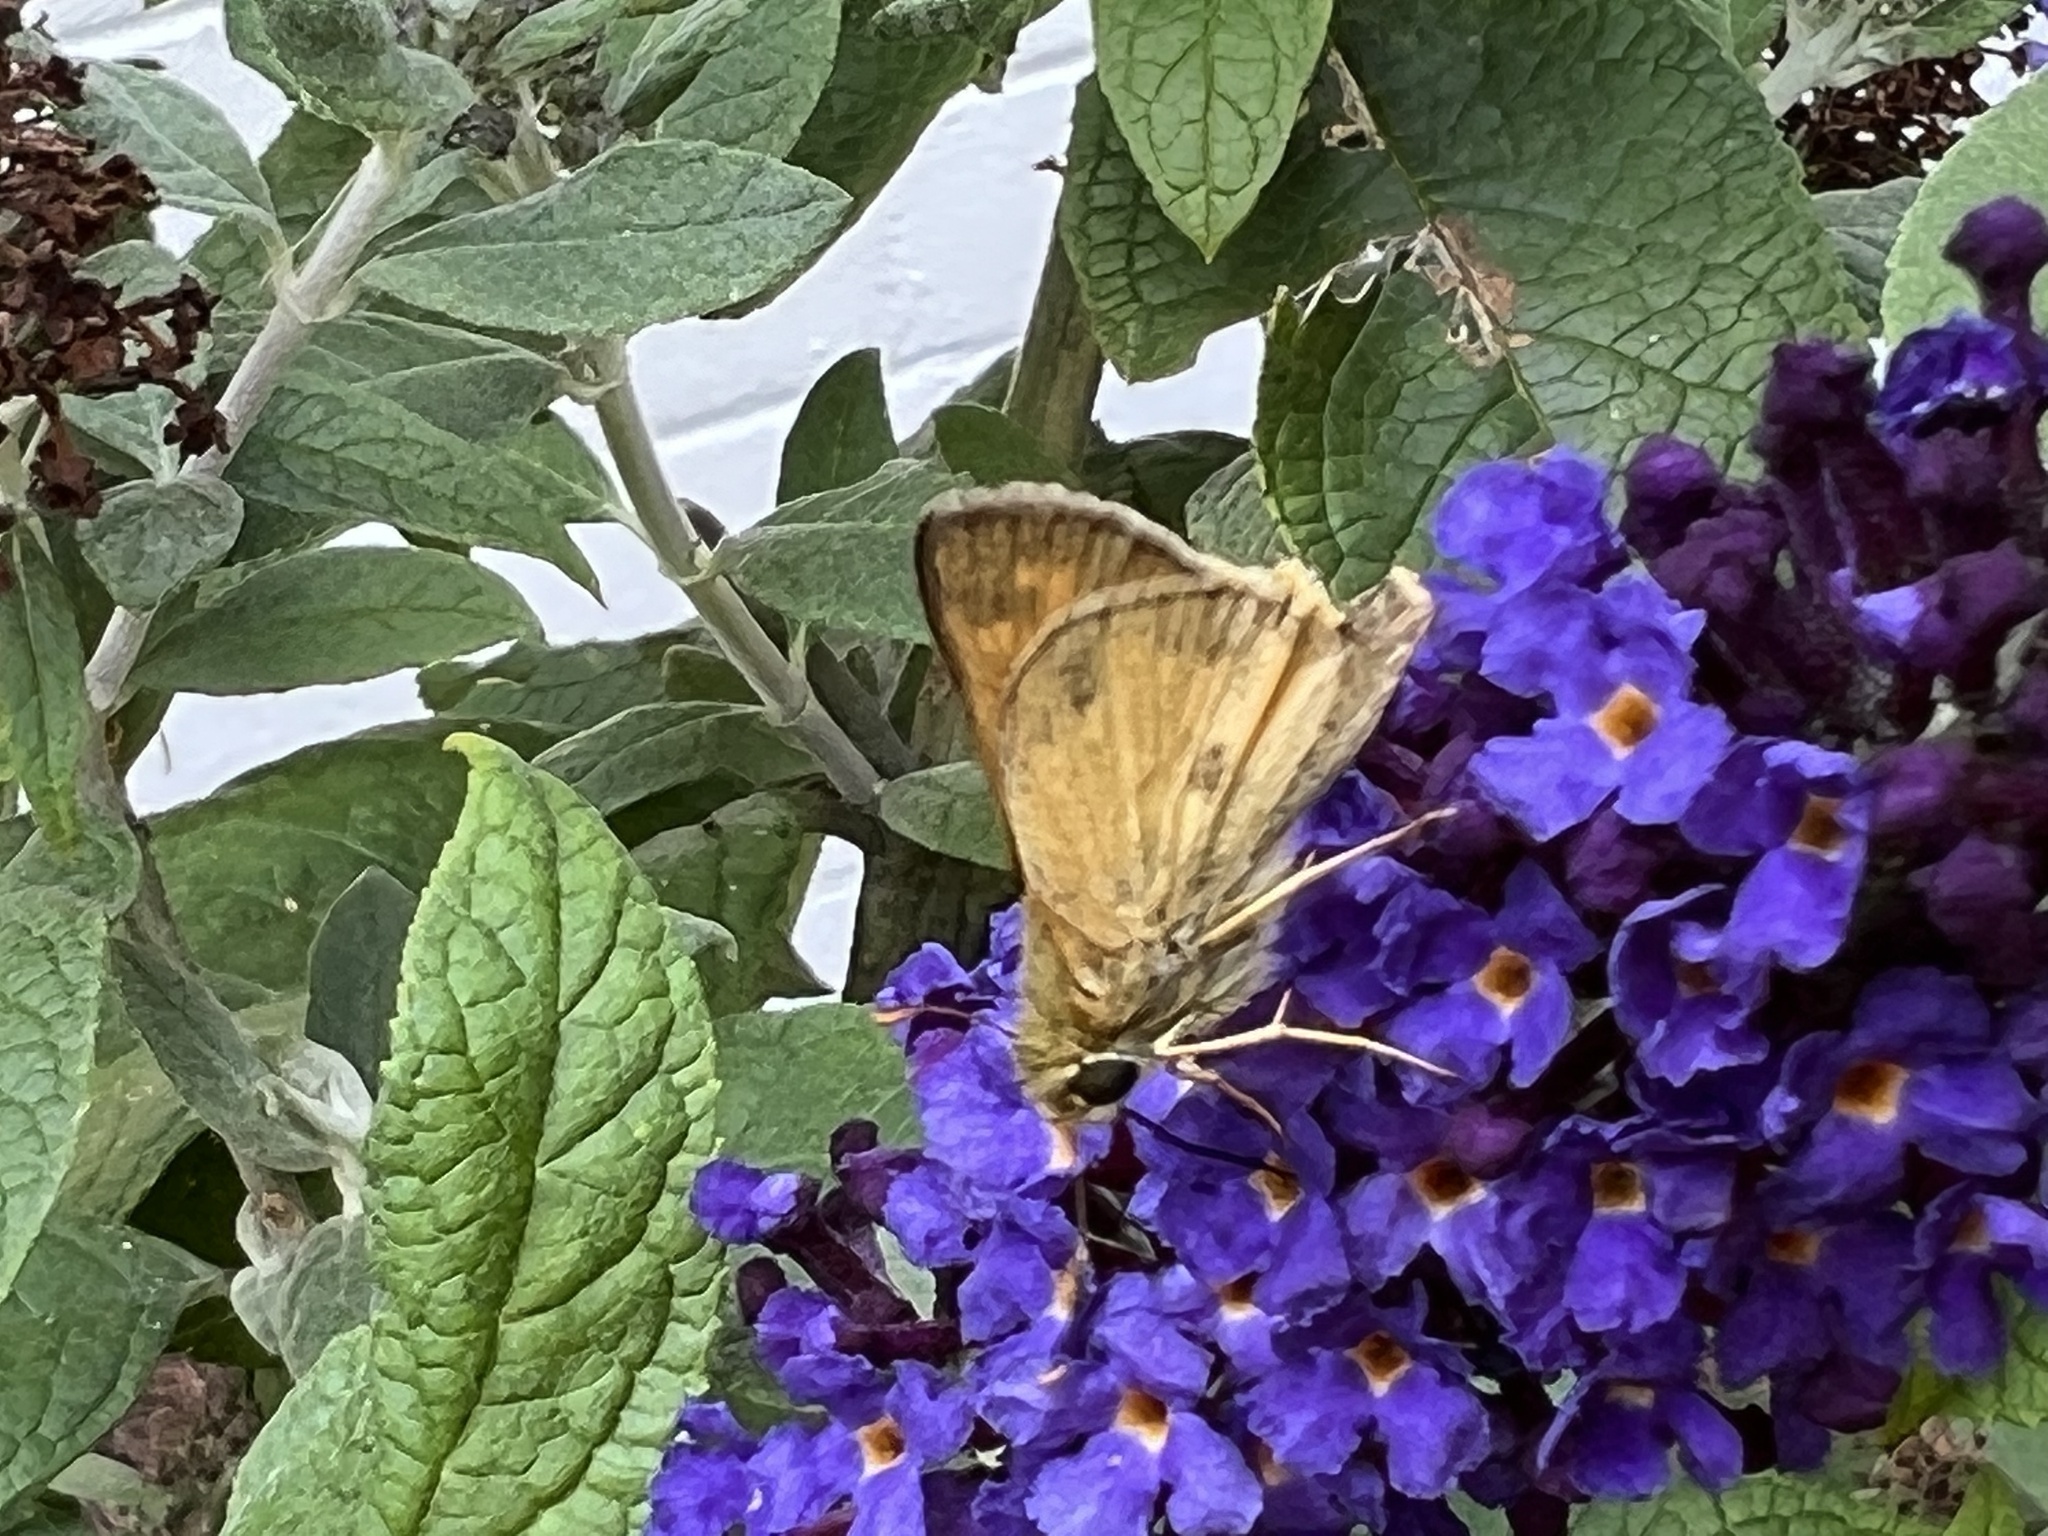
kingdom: Animalia
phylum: Arthropoda
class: Insecta
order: Lepidoptera
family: Hesperiidae
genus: Atalopedes
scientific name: Atalopedes
